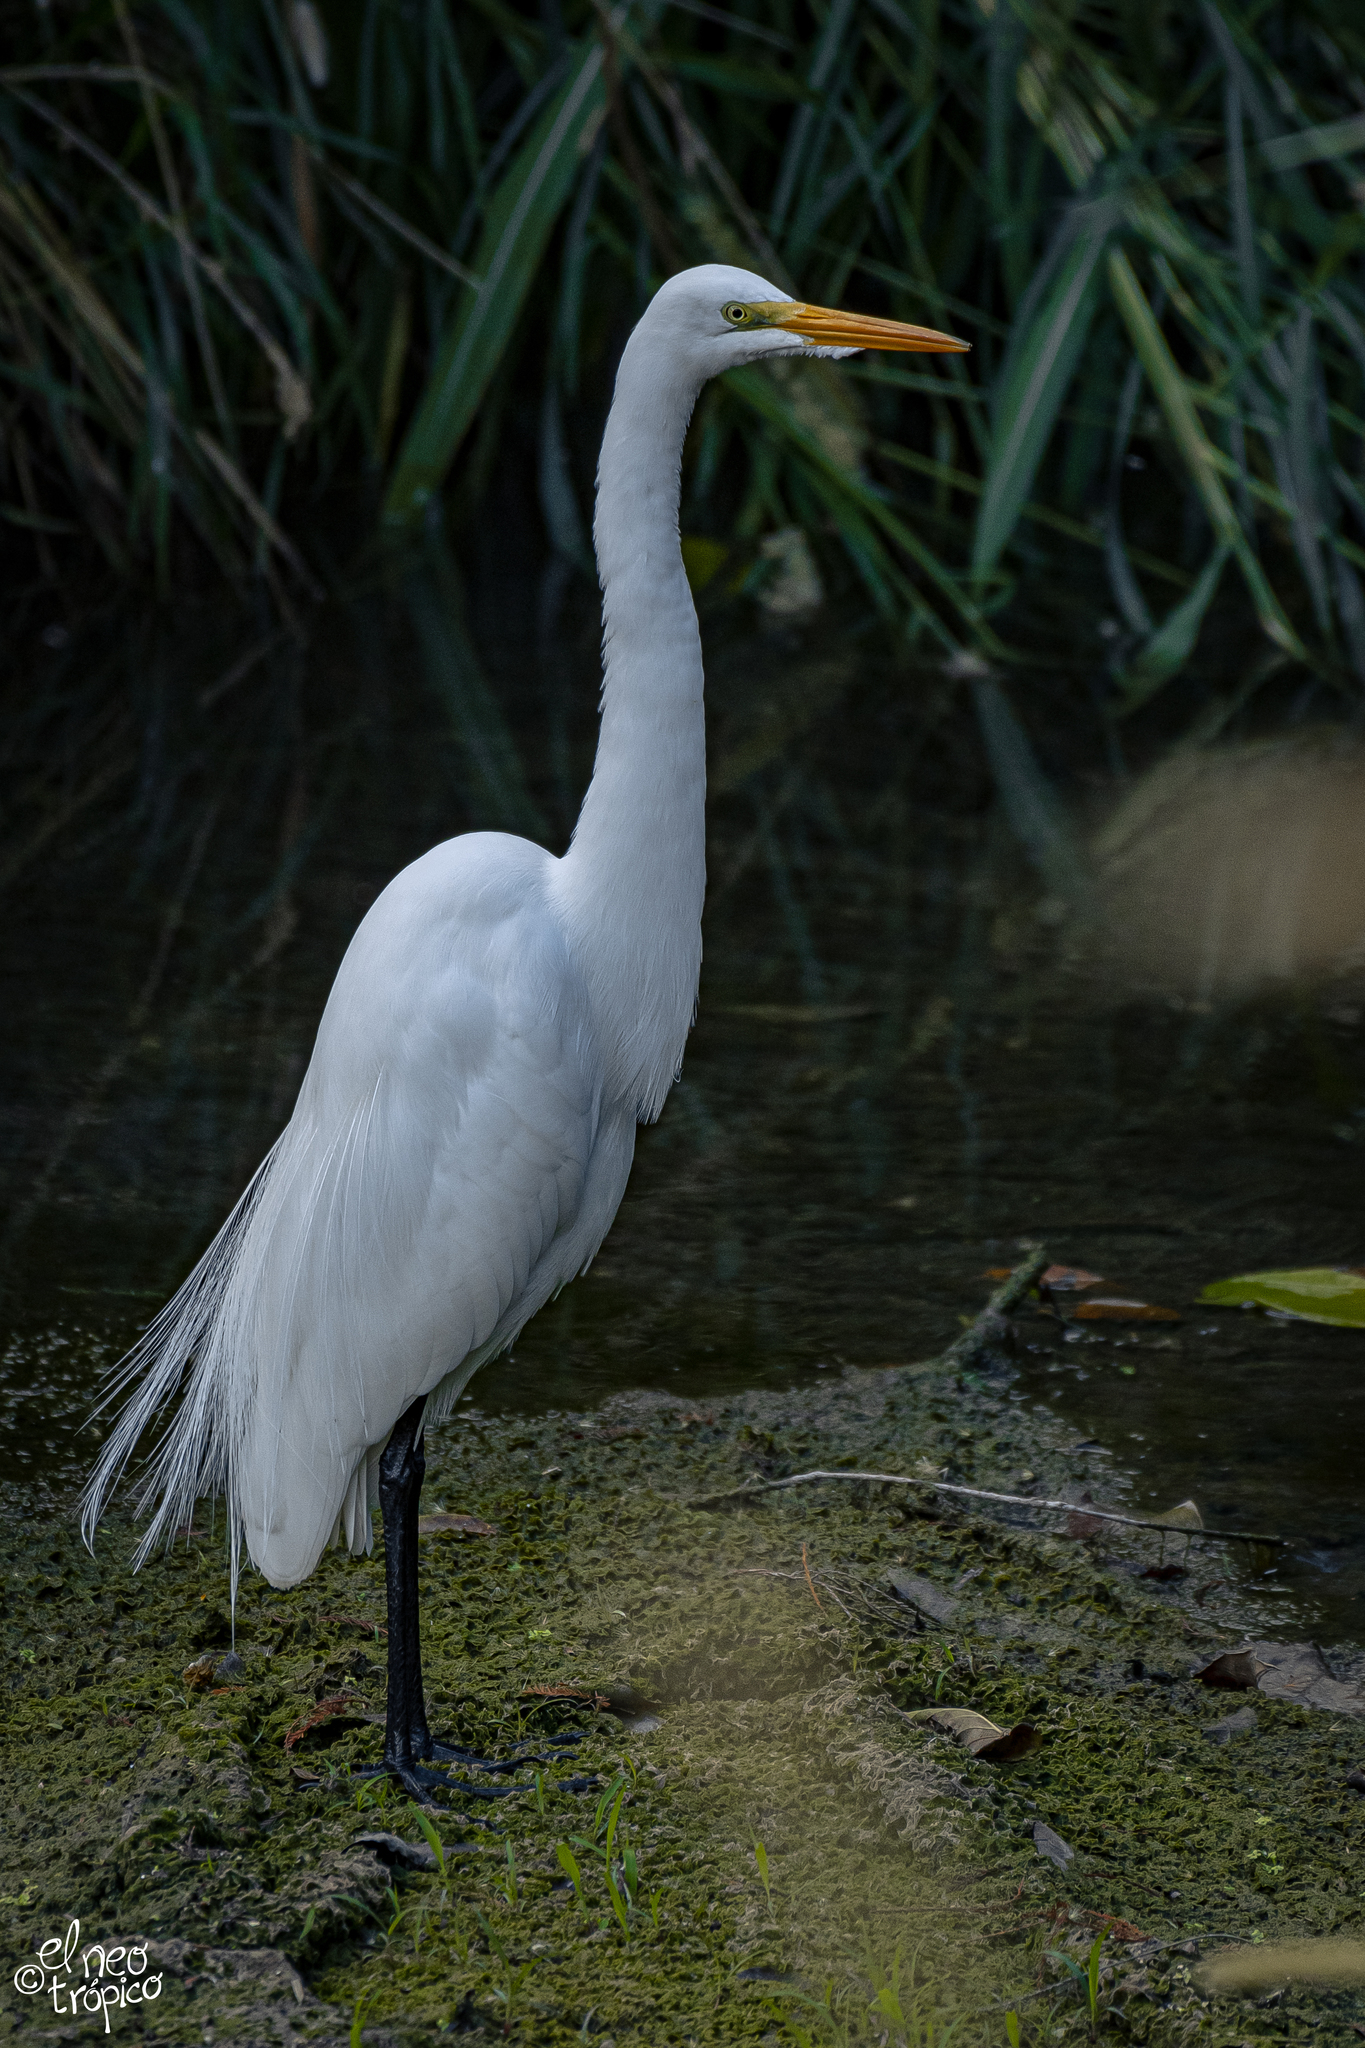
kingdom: Animalia
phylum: Chordata
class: Aves
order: Pelecaniformes
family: Ardeidae
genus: Ardea
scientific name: Ardea alba
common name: Great egret
